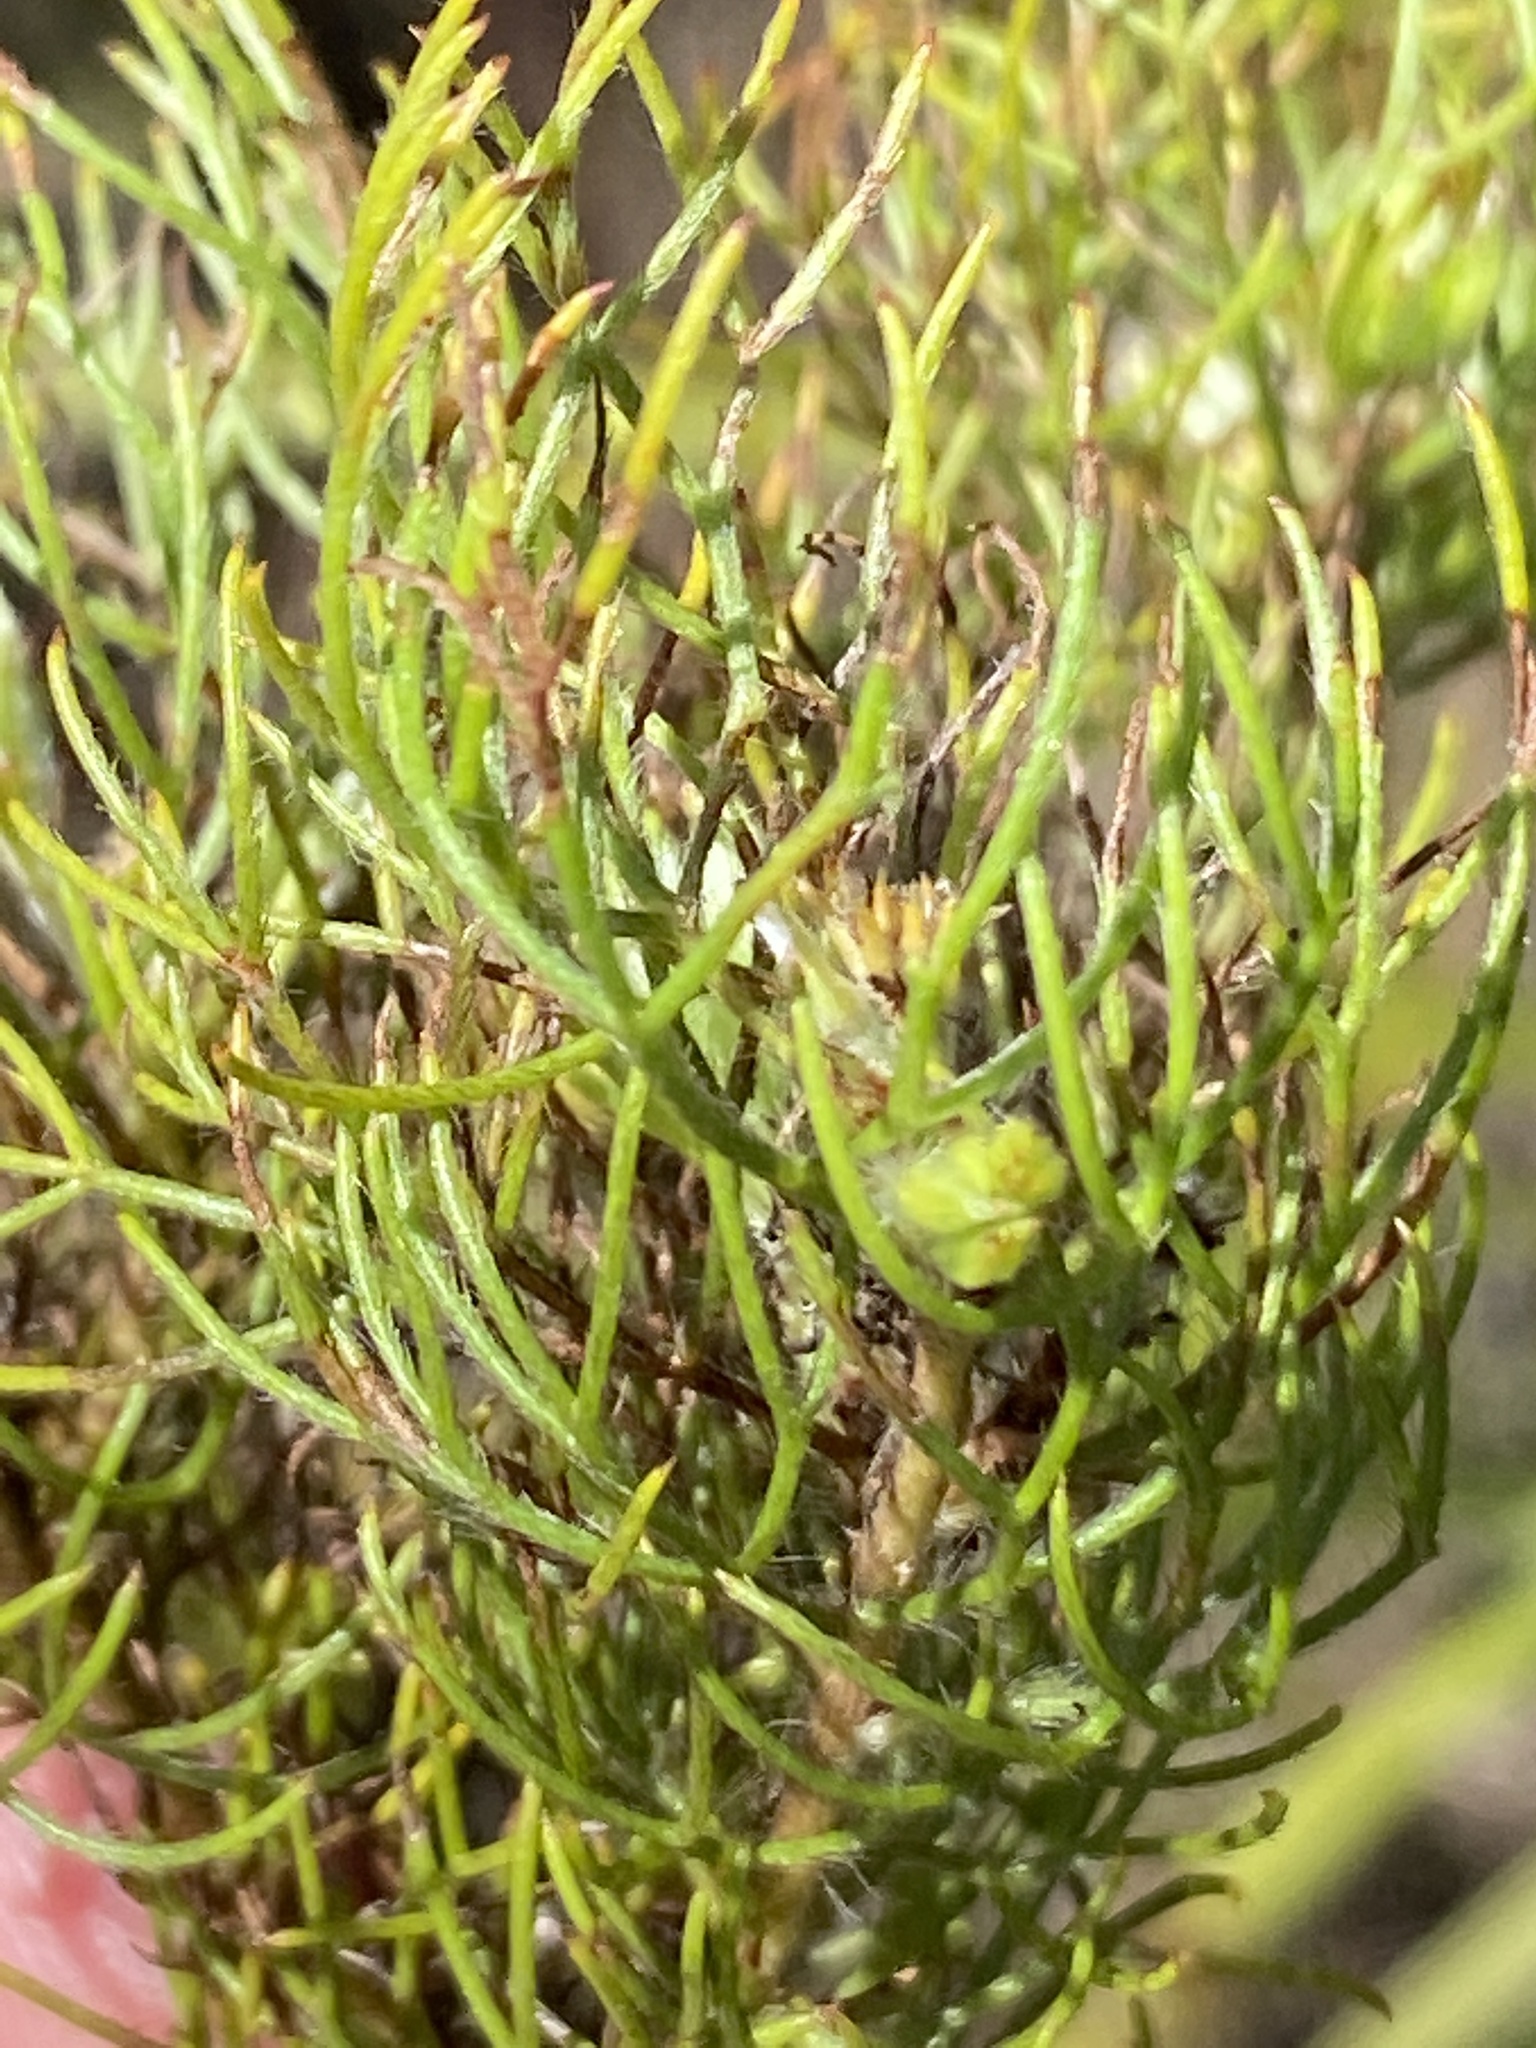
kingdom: Plantae
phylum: Tracheophyta
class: Magnoliopsida
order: Proteales
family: Proteaceae
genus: Serruria
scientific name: Serruria inconspicua
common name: Cryptic spiderhead
